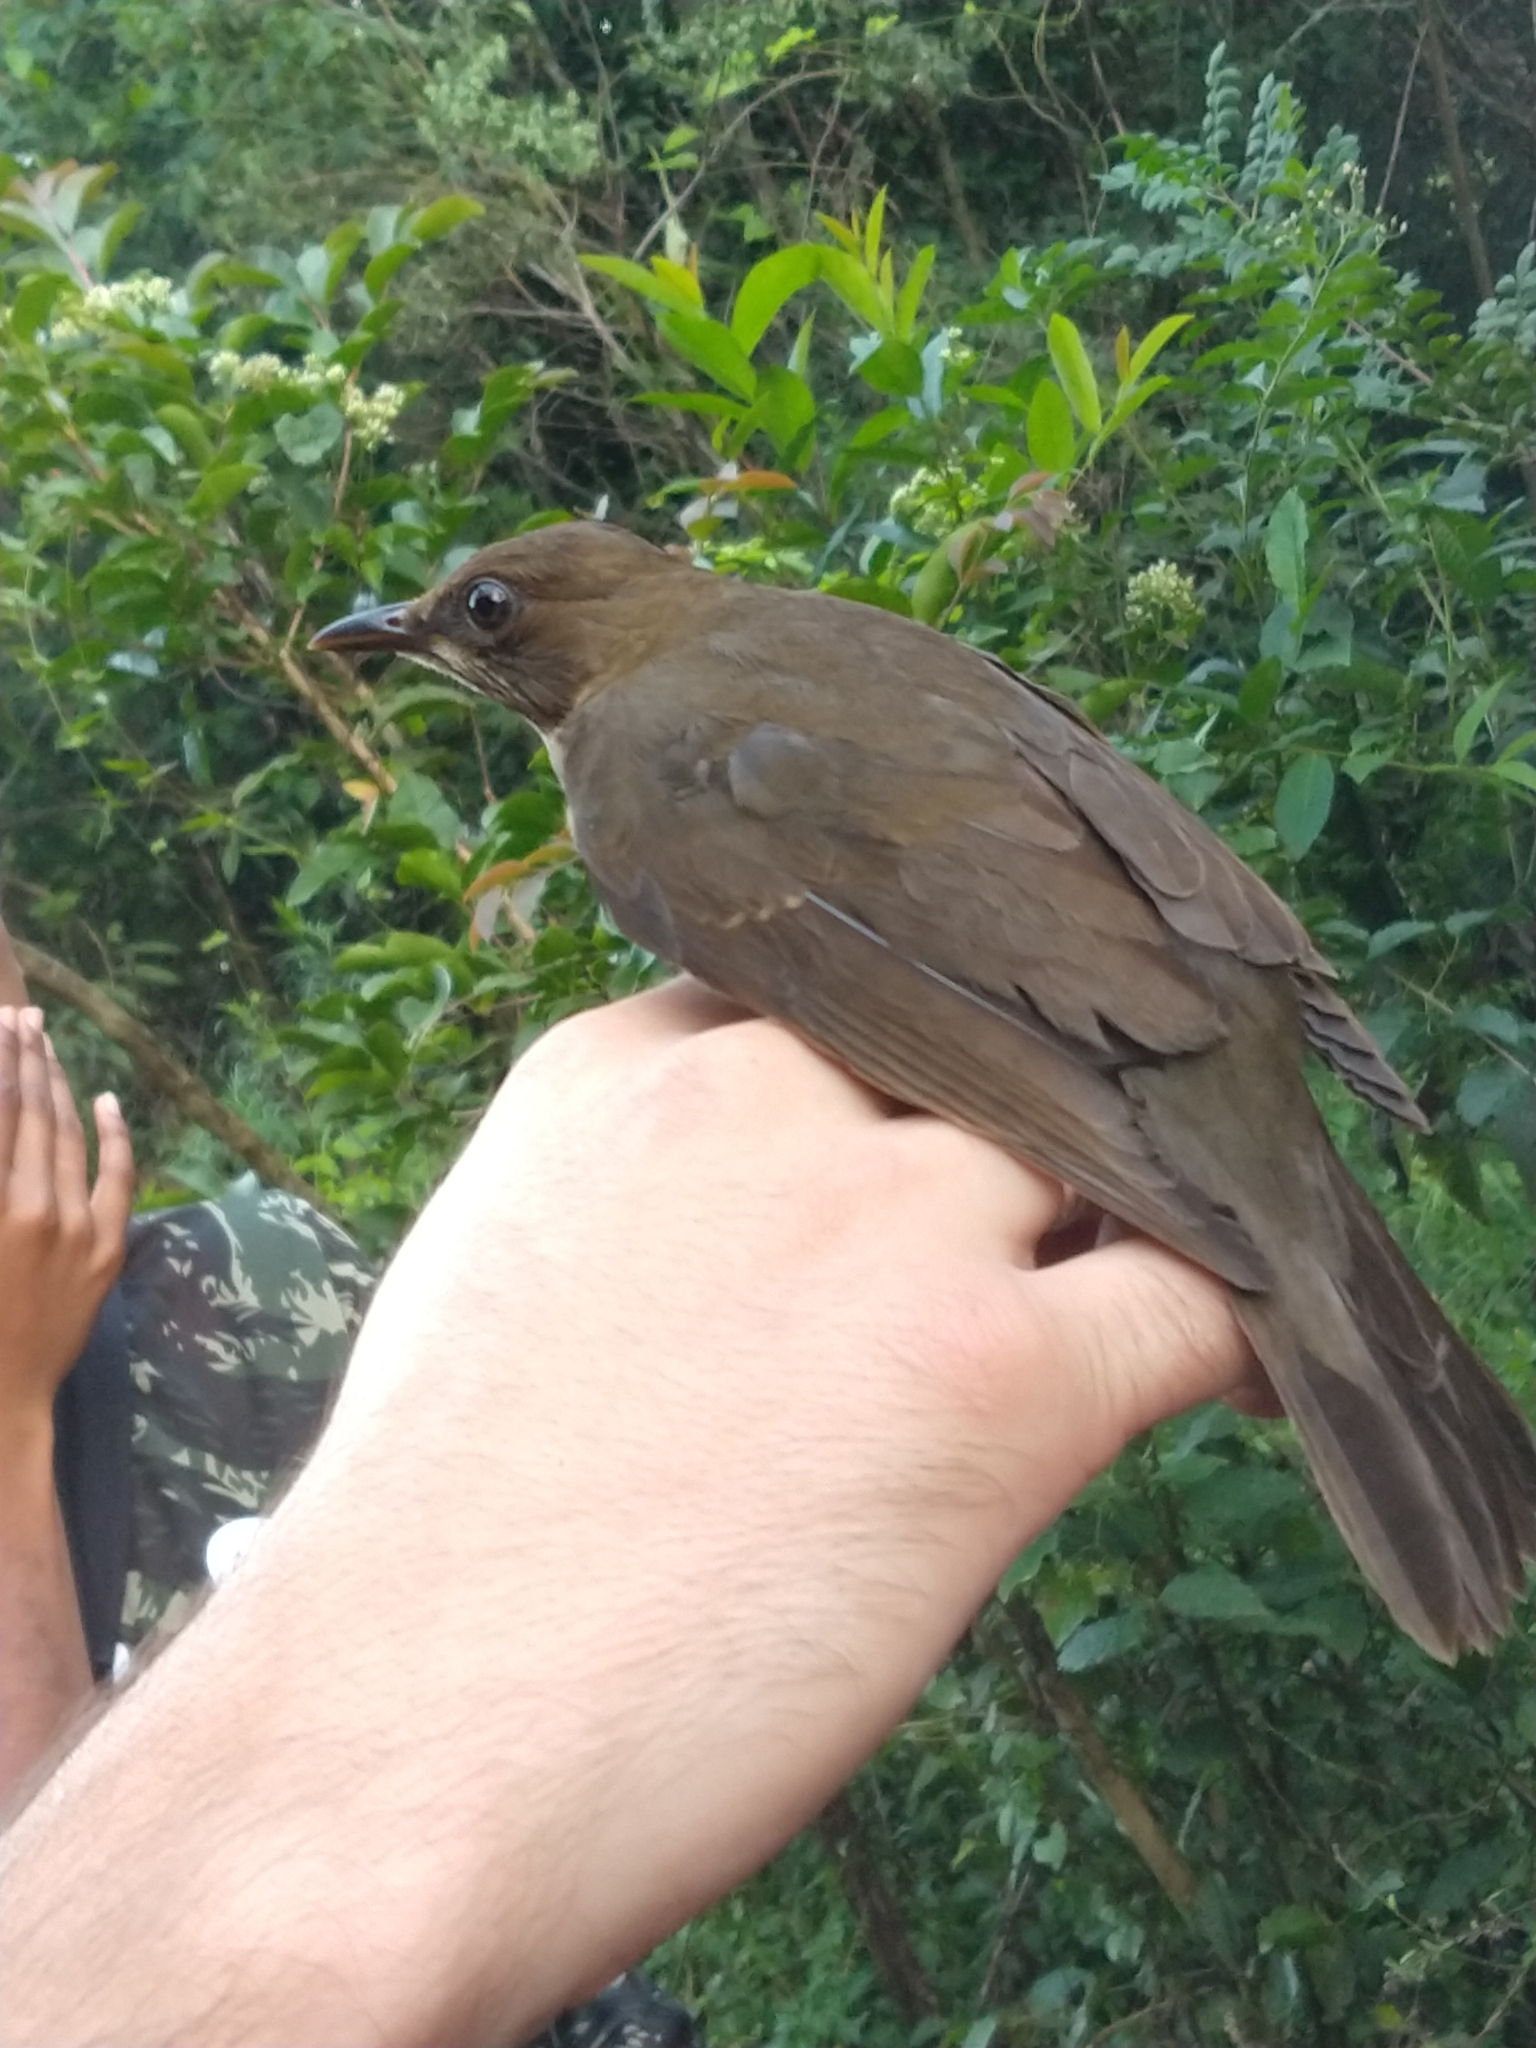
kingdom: Animalia
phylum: Chordata
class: Aves
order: Passeriformes
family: Turdidae
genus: Turdus
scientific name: Turdus amaurochalinus
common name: Creamy-bellied thrush
